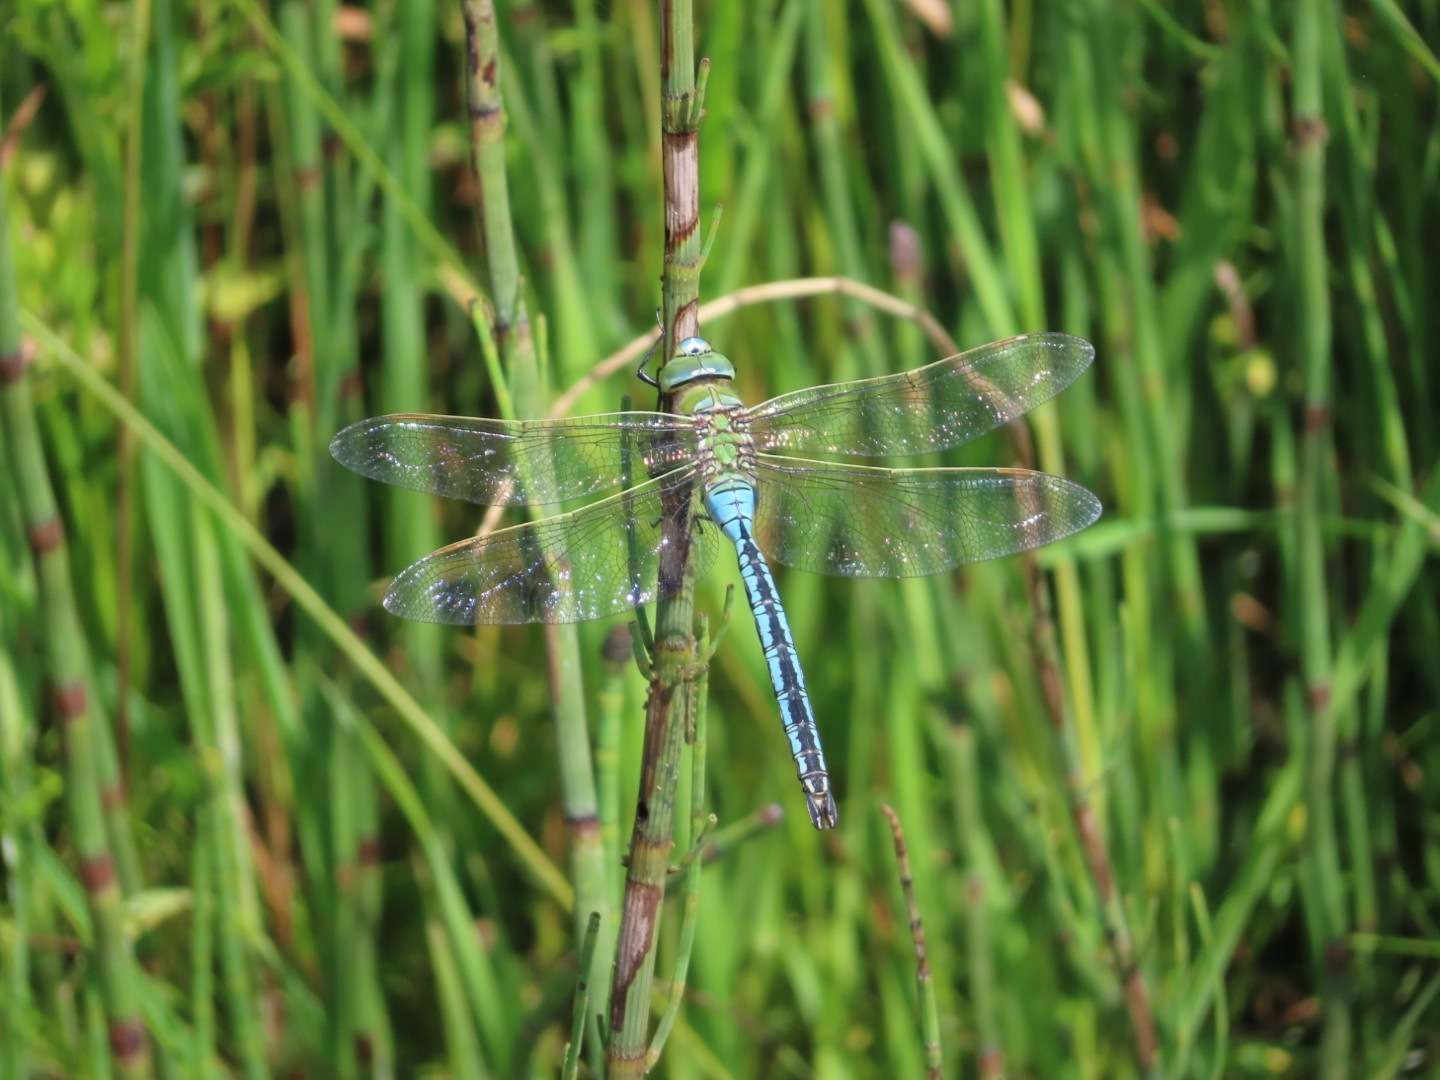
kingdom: Animalia
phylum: Arthropoda
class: Insecta
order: Odonata
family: Aeshnidae
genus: Anax
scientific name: Anax imperator
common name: Emperor dragonfly
